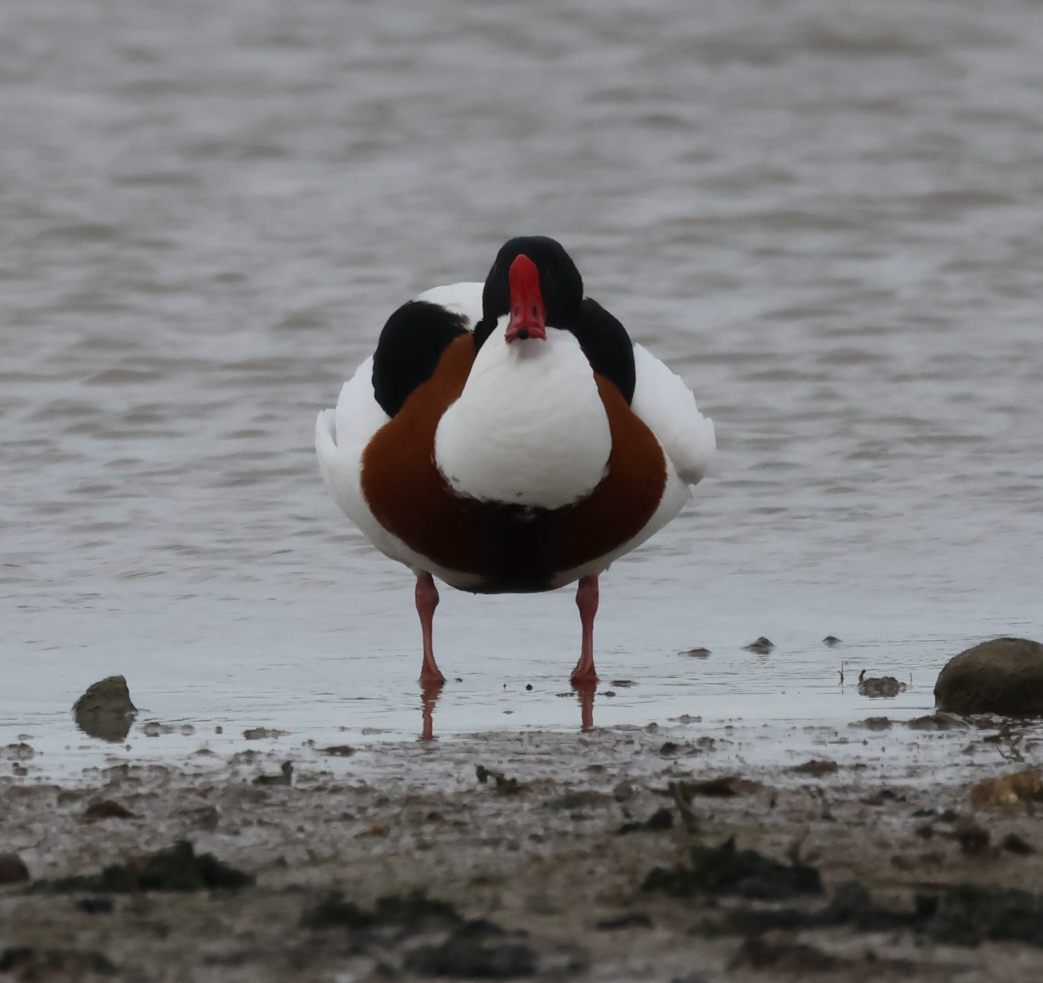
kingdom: Animalia
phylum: Chordata
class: Aves
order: Anseriformes
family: Anatidae
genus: Tadorna
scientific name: Tadorna tadorna
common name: Common shelduck
